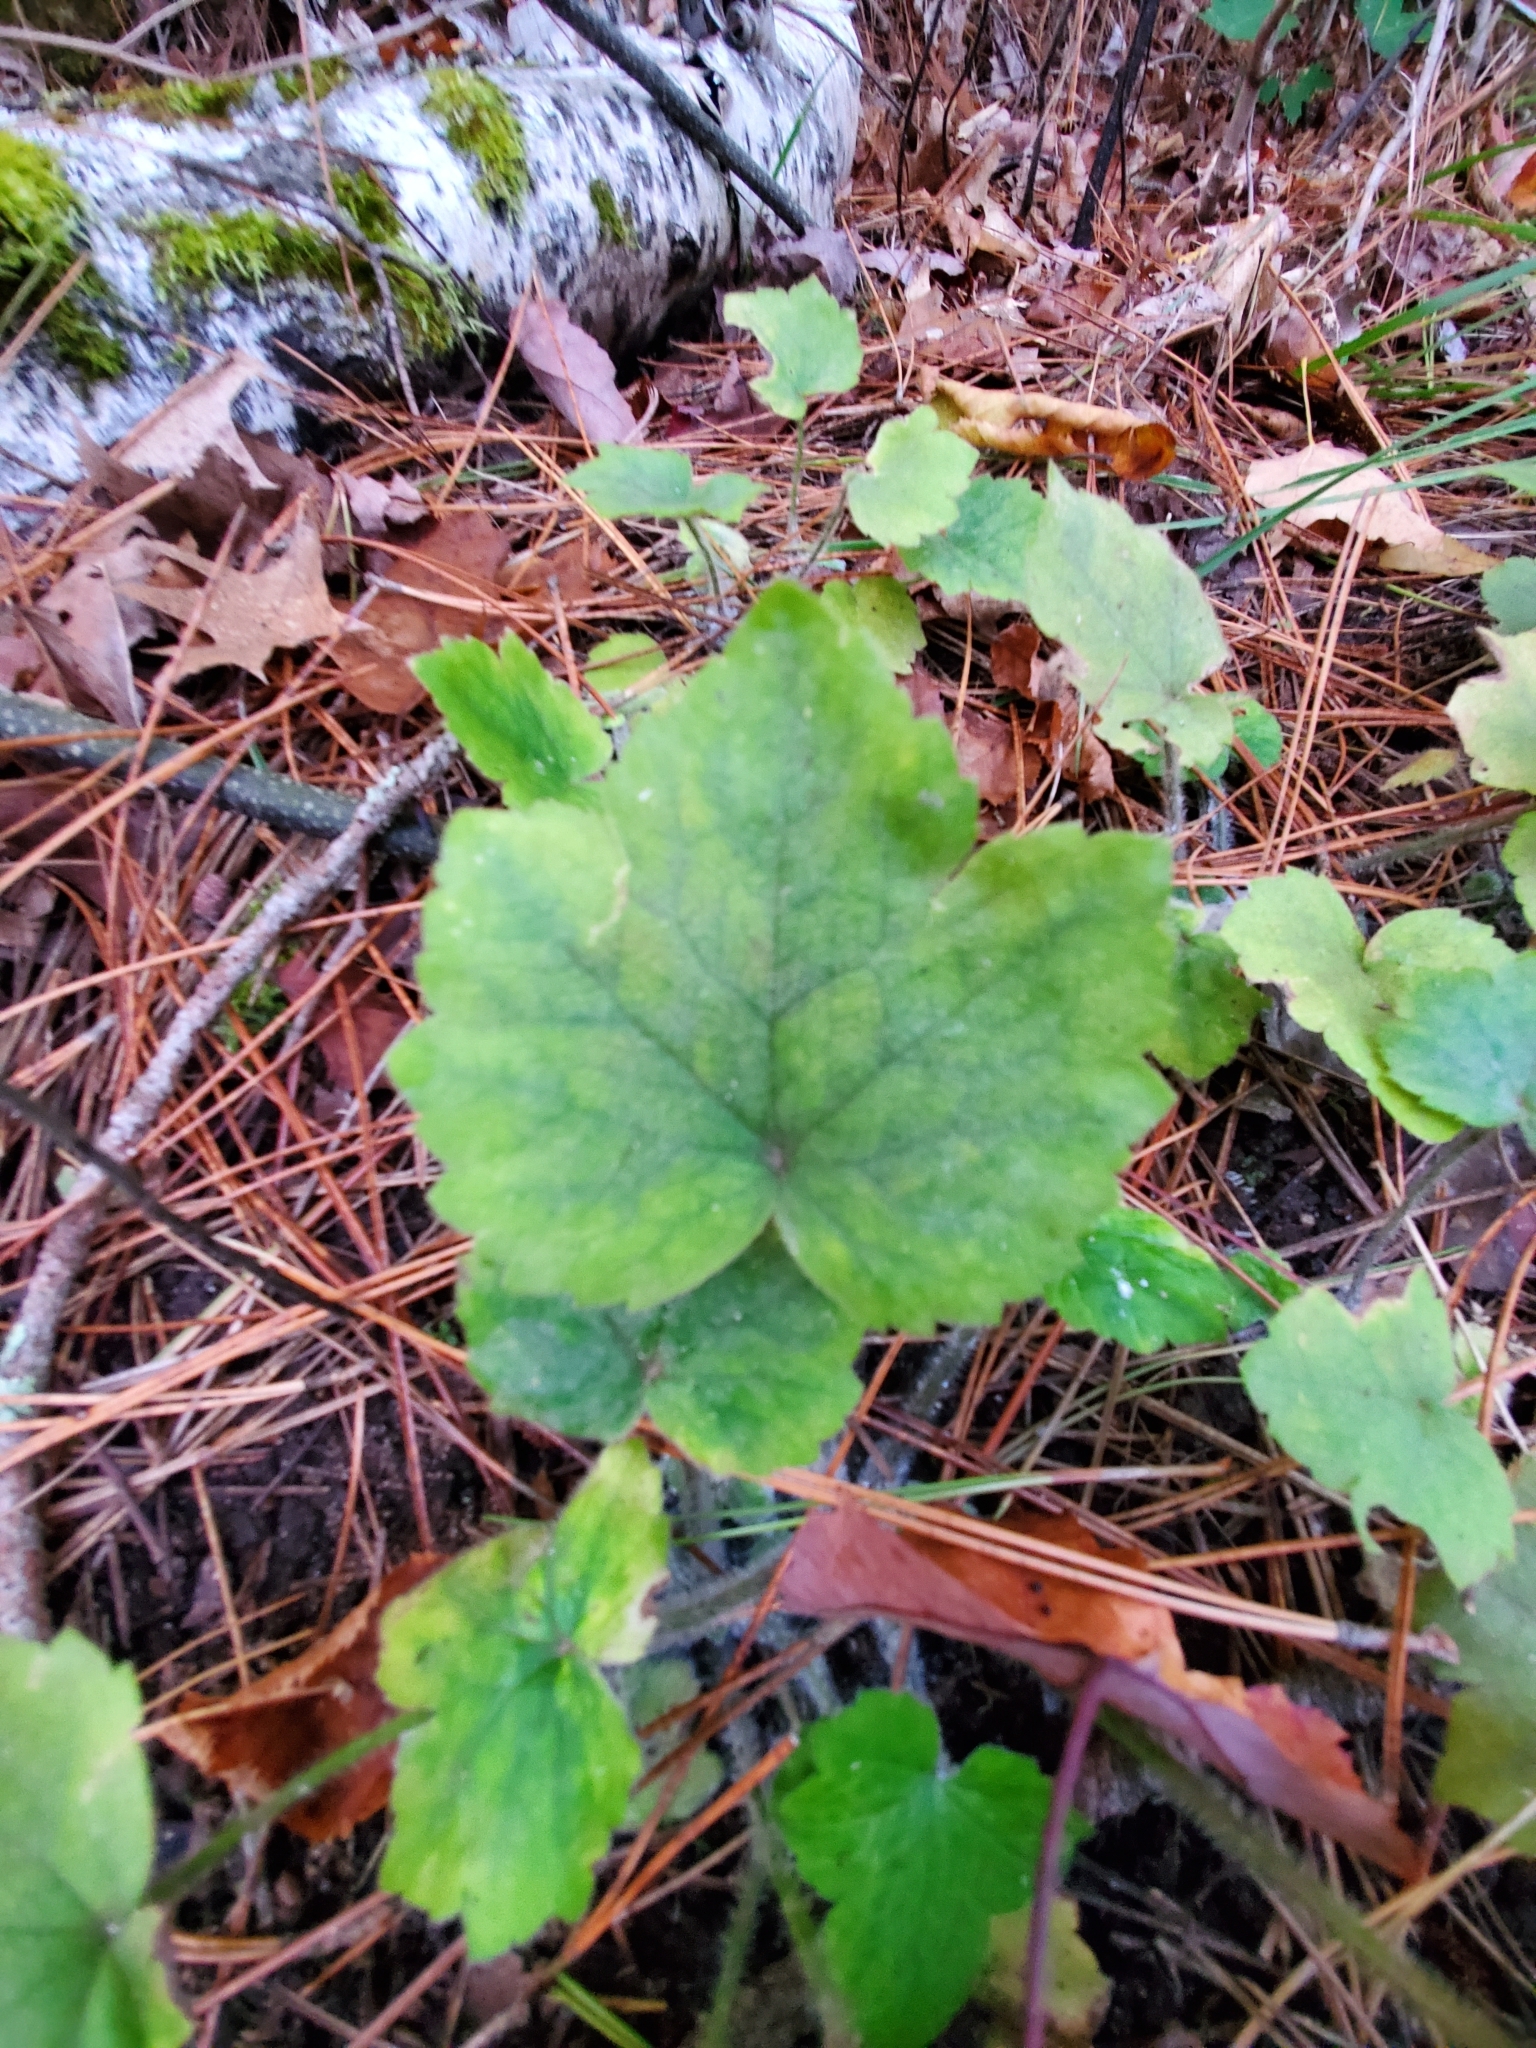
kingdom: Plantae
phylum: Tracheophyta
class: Magnoliopsida
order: Saxifragales
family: Saxifragaceae
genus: Mitella
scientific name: Mitella diphylla
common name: Coolwort
